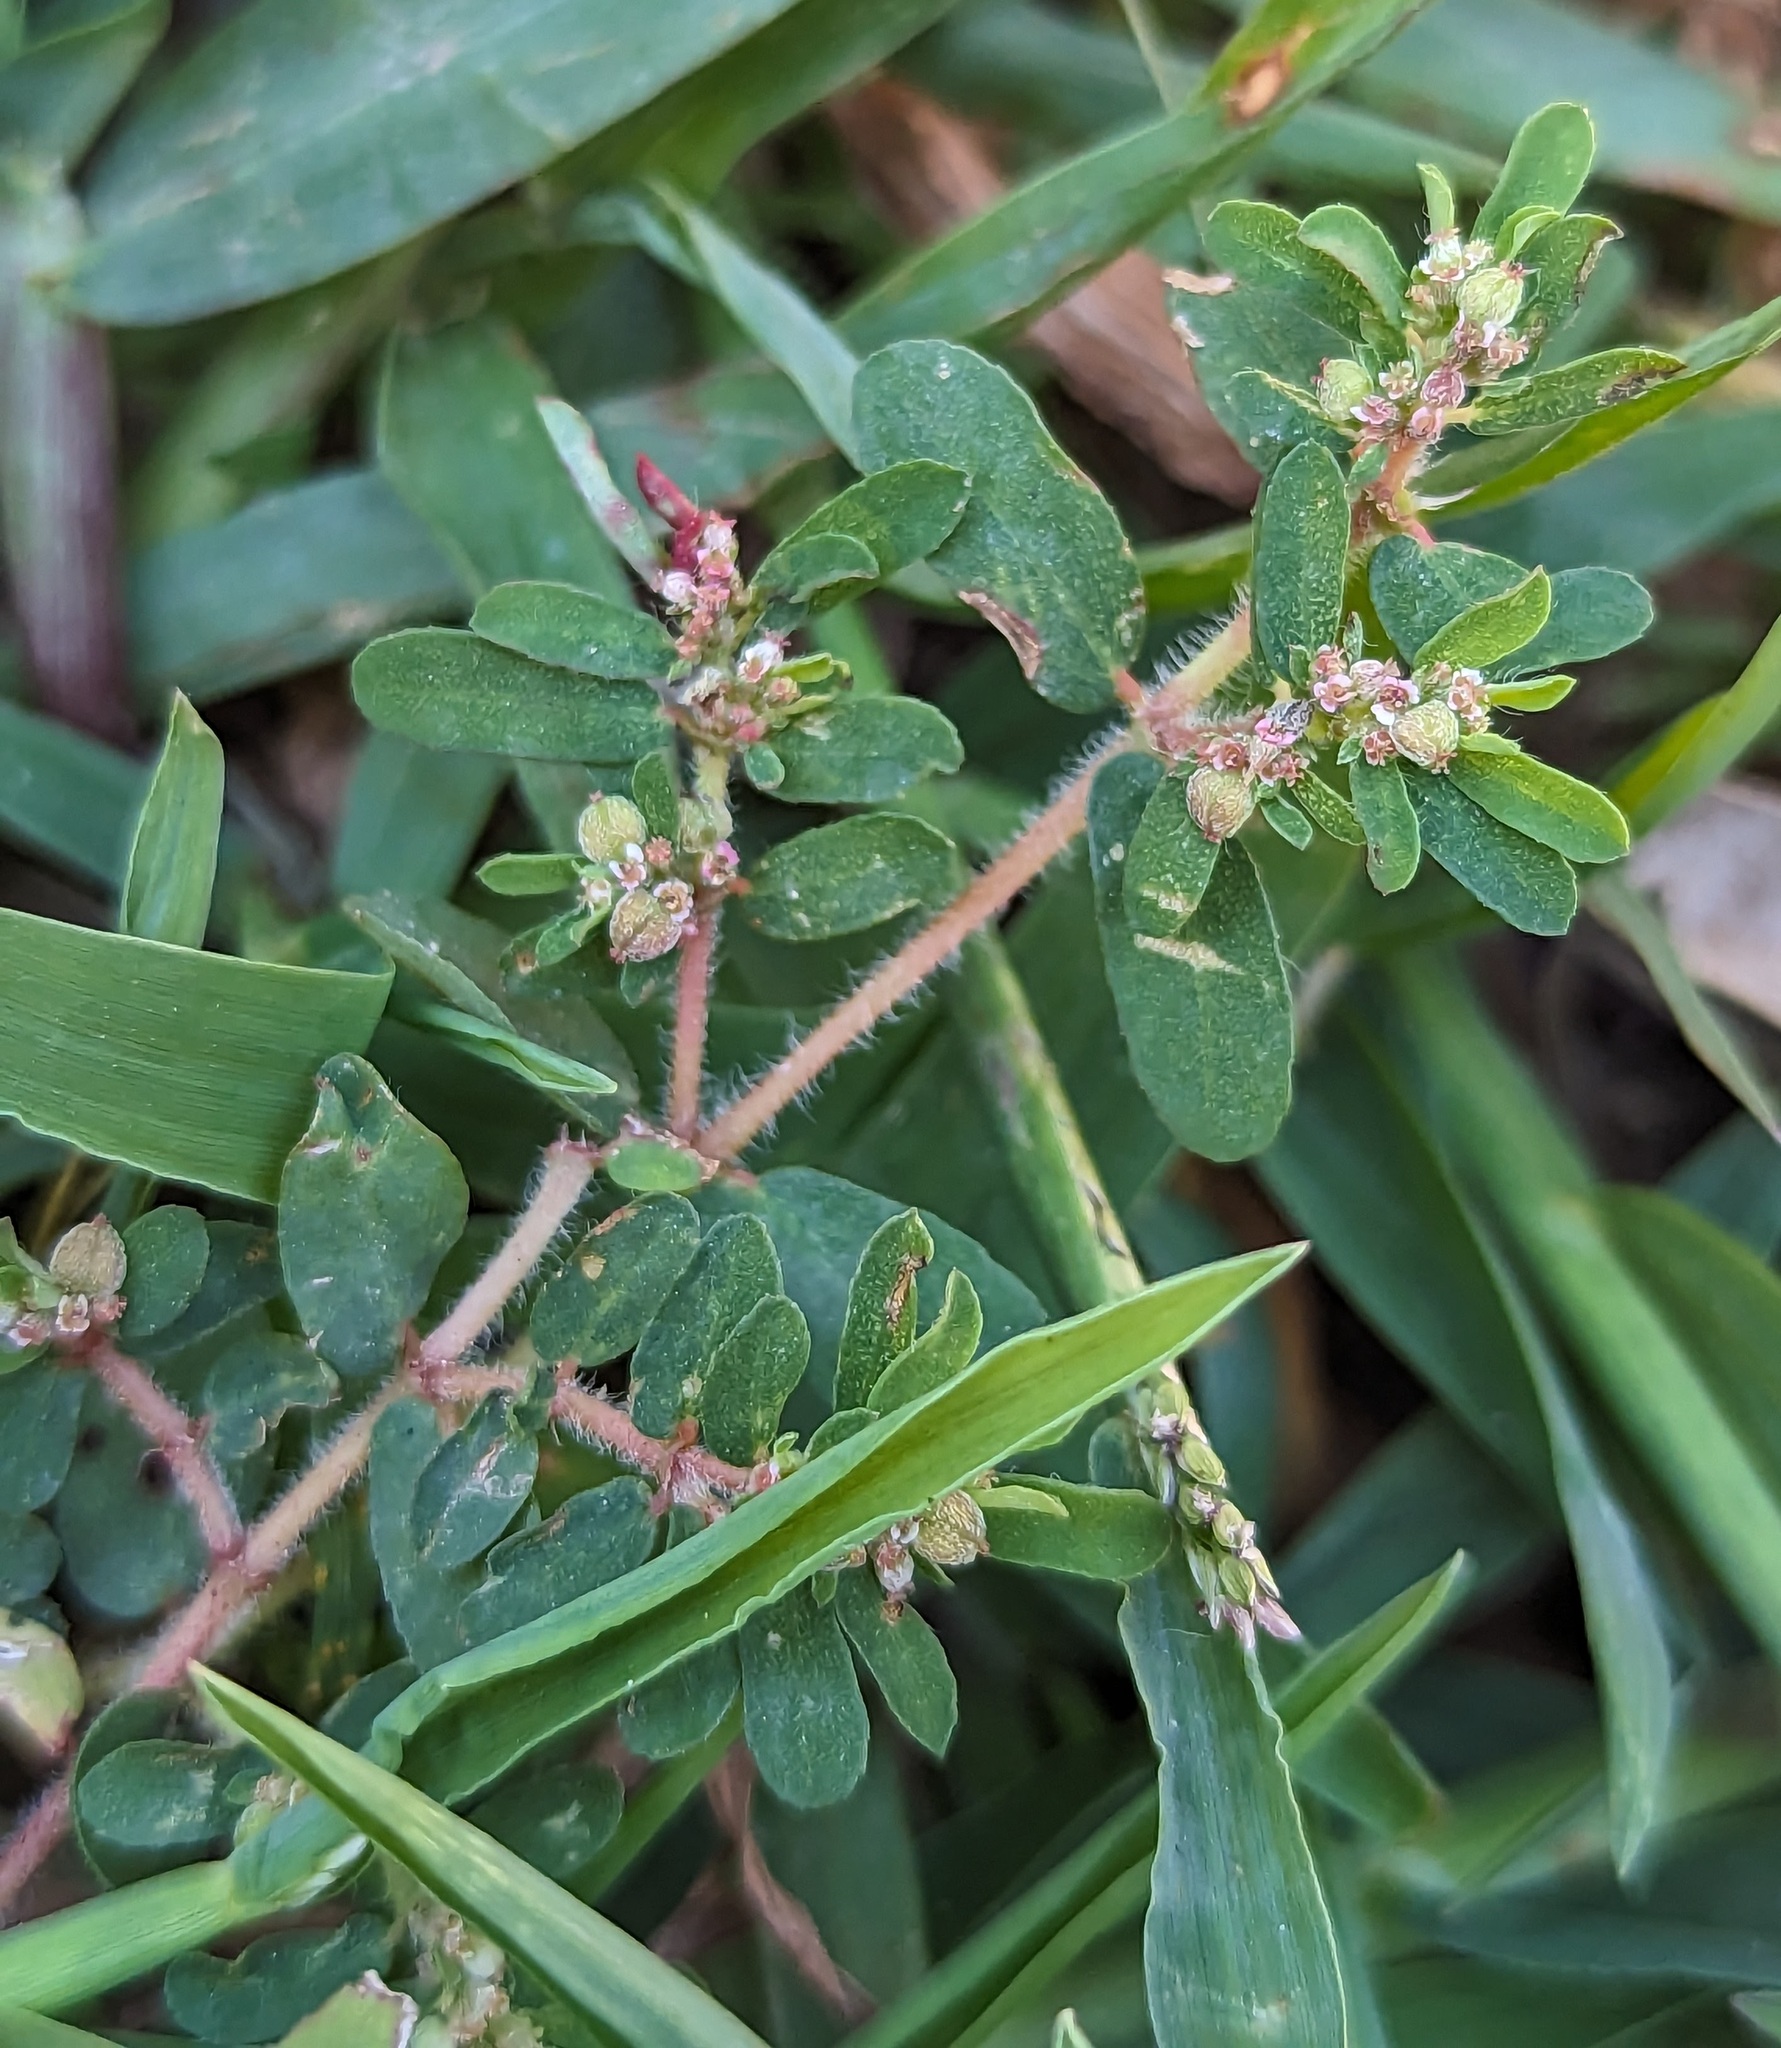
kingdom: Plantae
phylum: Tracheophyta
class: Magnoliopsida
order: Malpighiales
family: Euphorbiaceae
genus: Euphorbia
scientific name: Euphorbia maculata
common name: Spotted spurge
